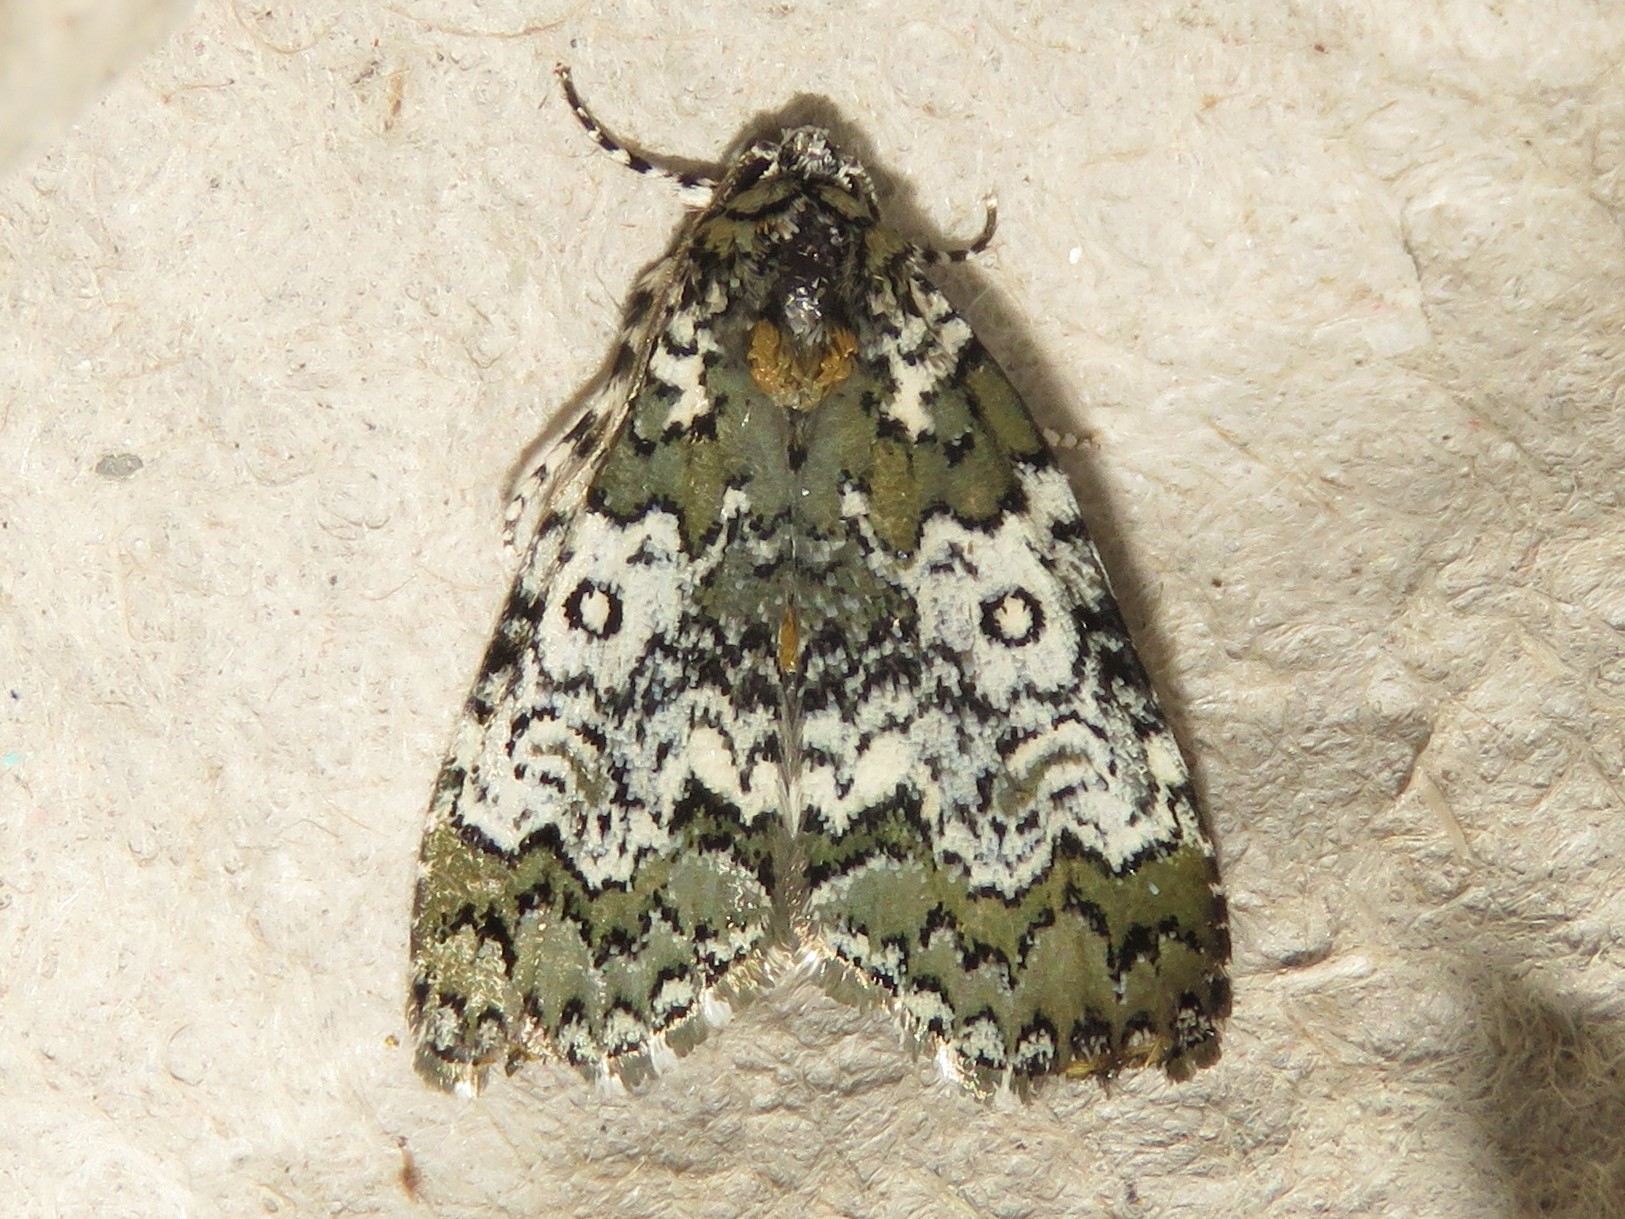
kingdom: Animalia
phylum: Arthropoda
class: Insecta
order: Lepidoptera
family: Noctuidae
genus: Cerma
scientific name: Cerma cora
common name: Bird dropping moth
